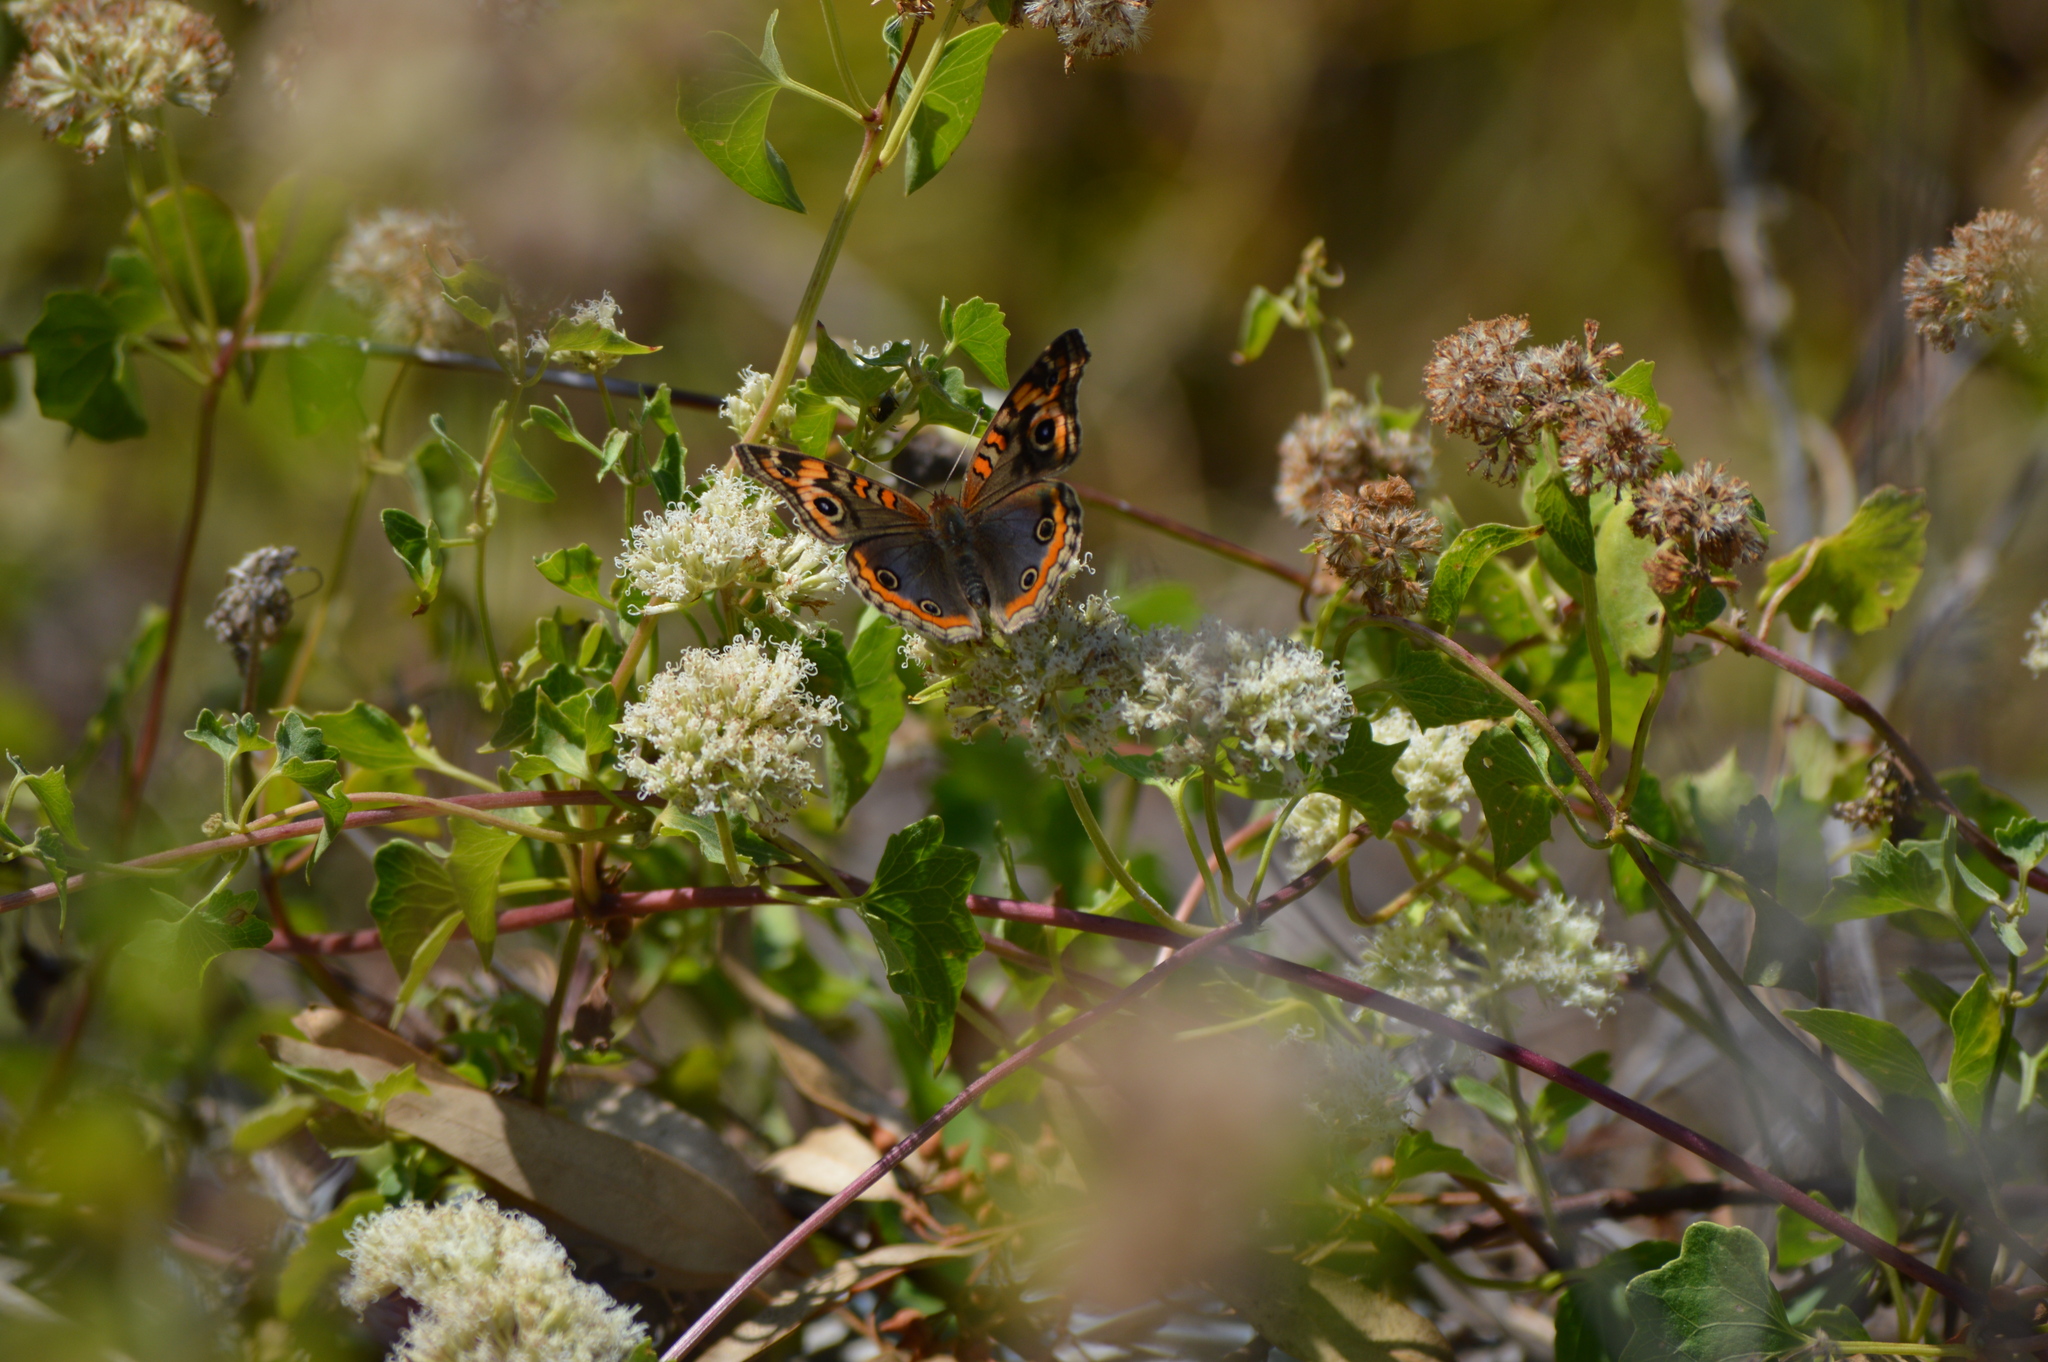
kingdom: Animalia
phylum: Arthropoda
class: Insecta
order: Lepidoptera
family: Nymphalidae
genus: Junonia
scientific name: Junonia lavinia
